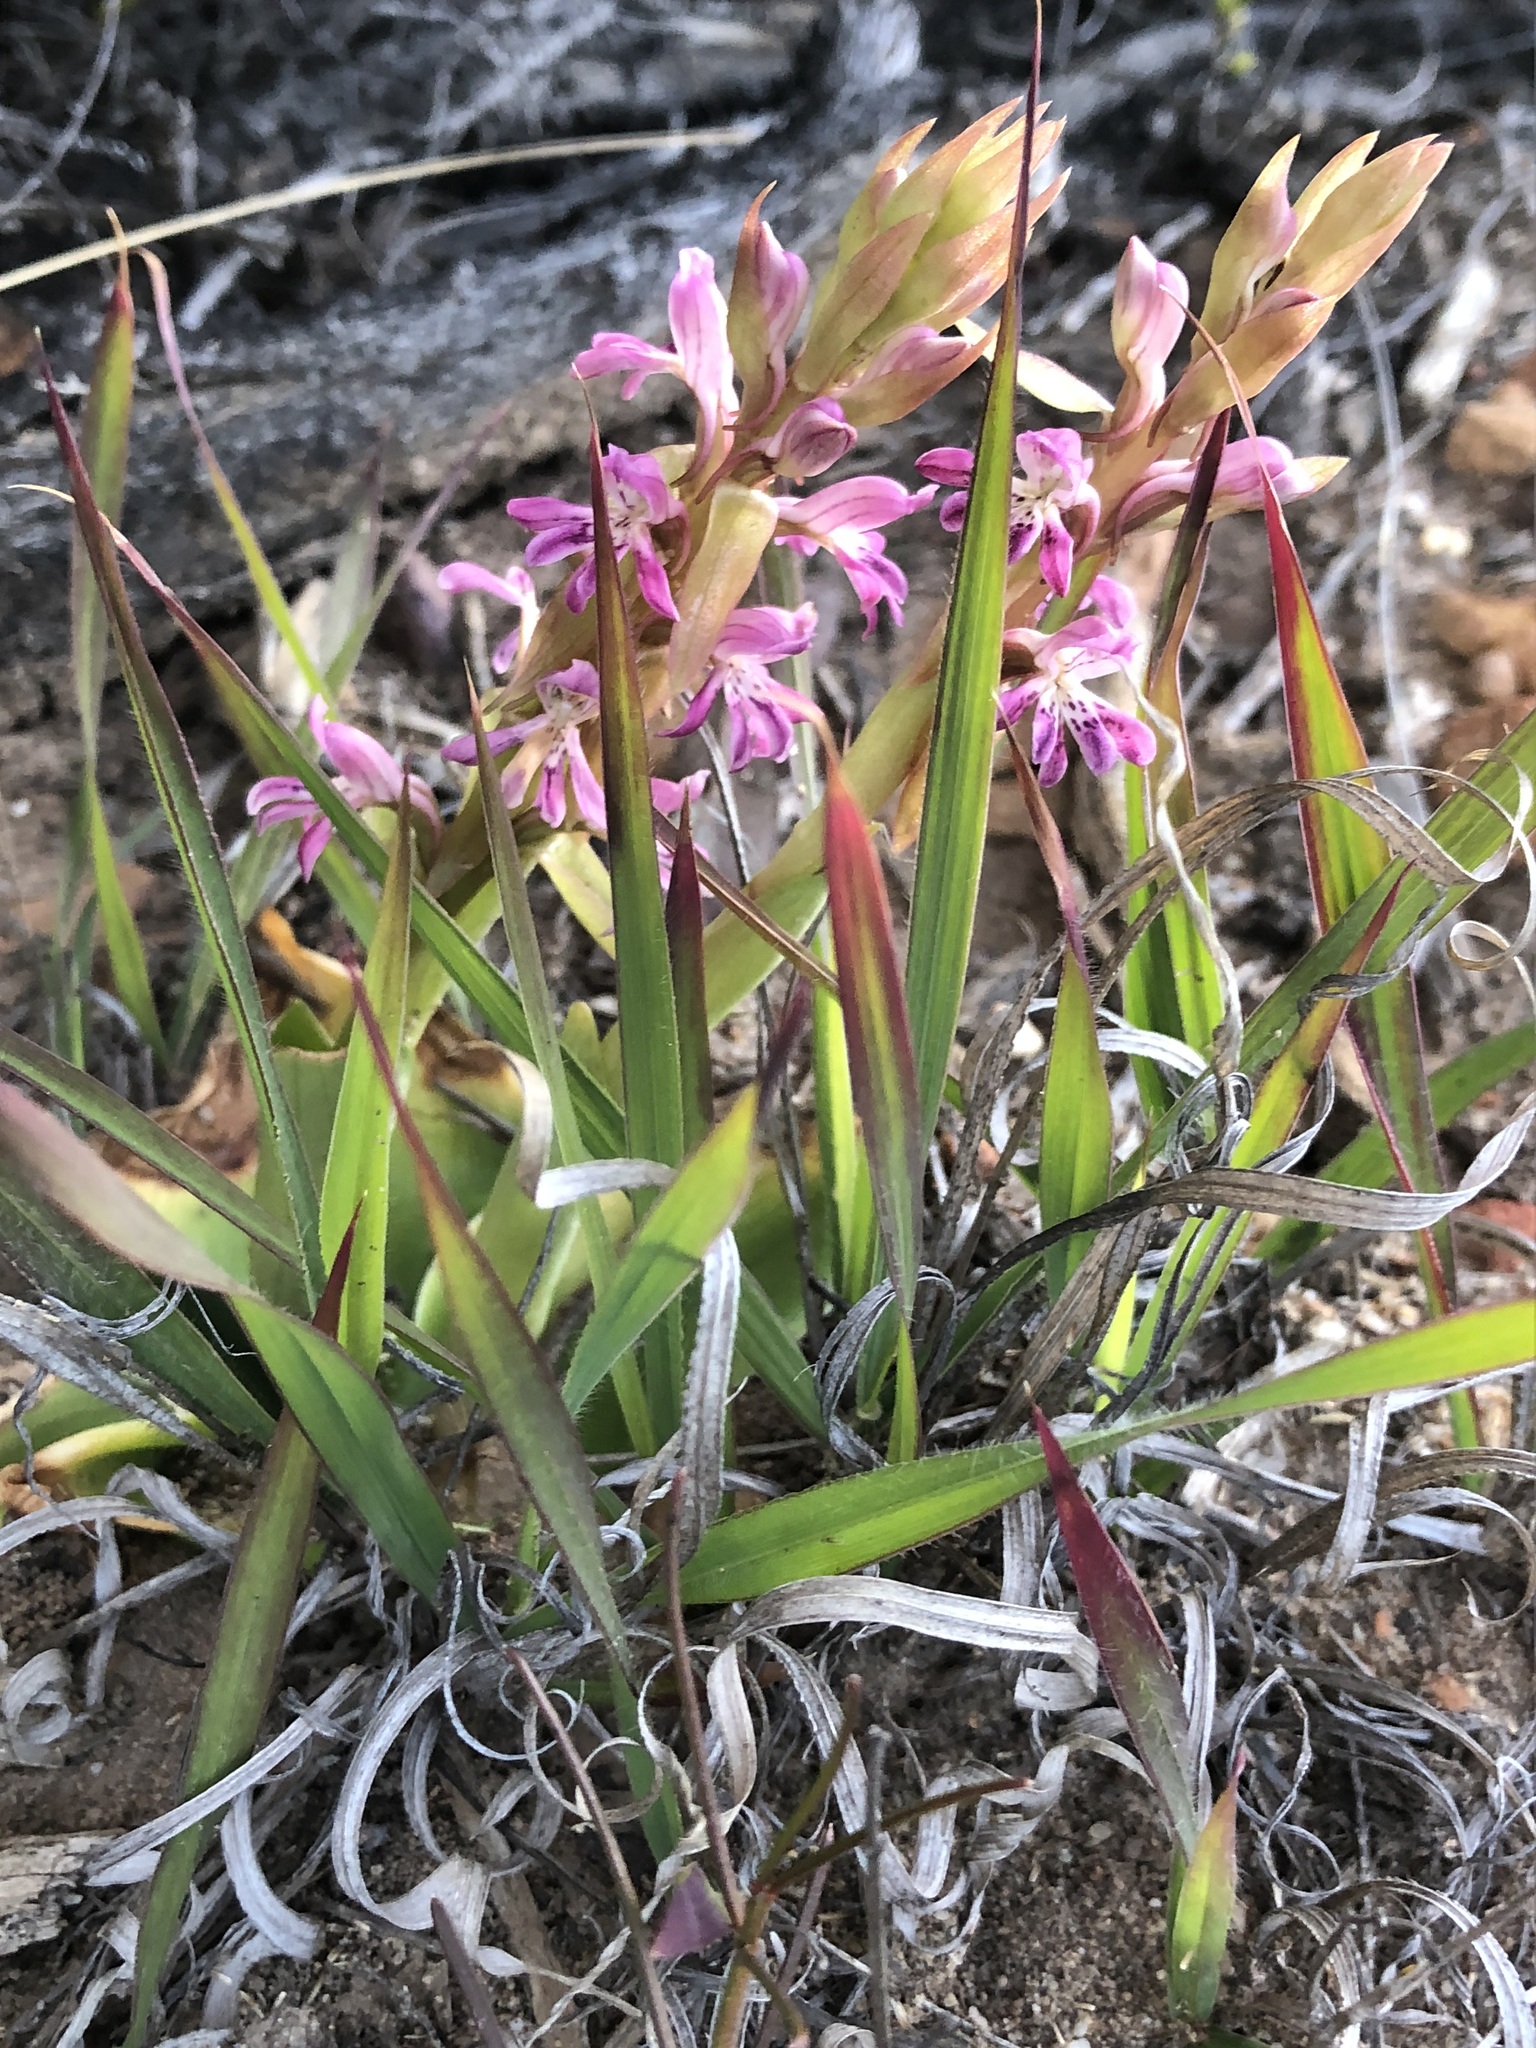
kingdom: Plantae
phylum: Tracheophyta
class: Liliopsida
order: Asparagales
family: Orchidaceae
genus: Satyrium
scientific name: Satyrium erectum
